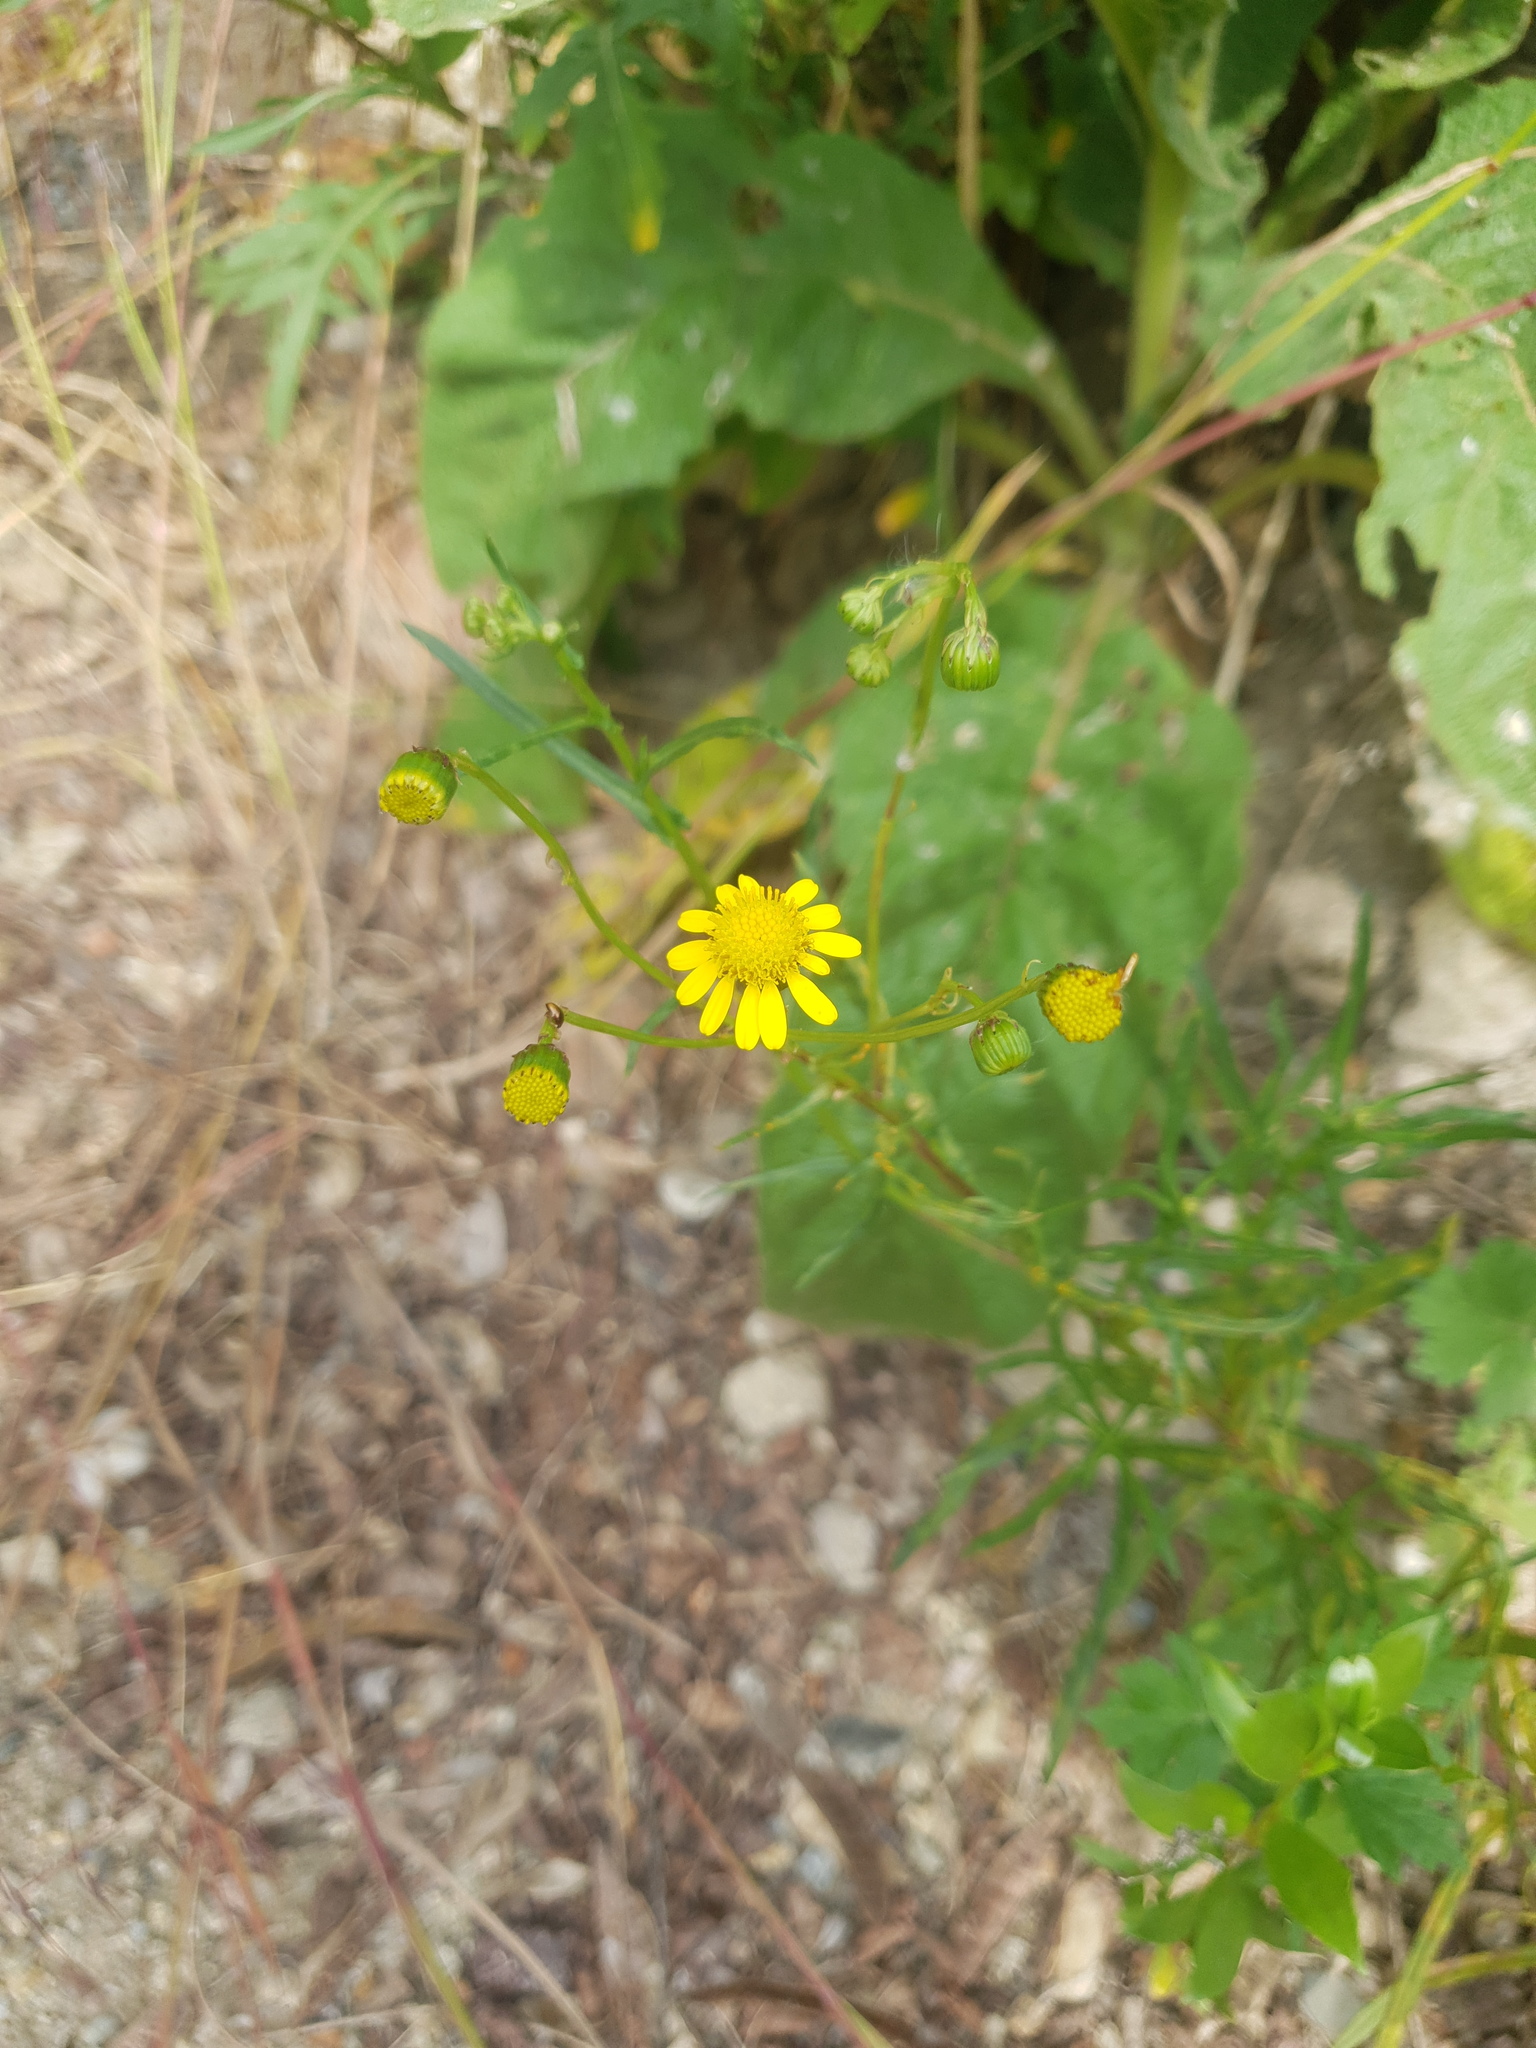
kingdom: Plantae
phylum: Tracheophyta
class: Magnoliopsida
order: Asterales
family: Asteraceae
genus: Senecio
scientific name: Senecio inaequidens
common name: Narrow-leaved ragwort
